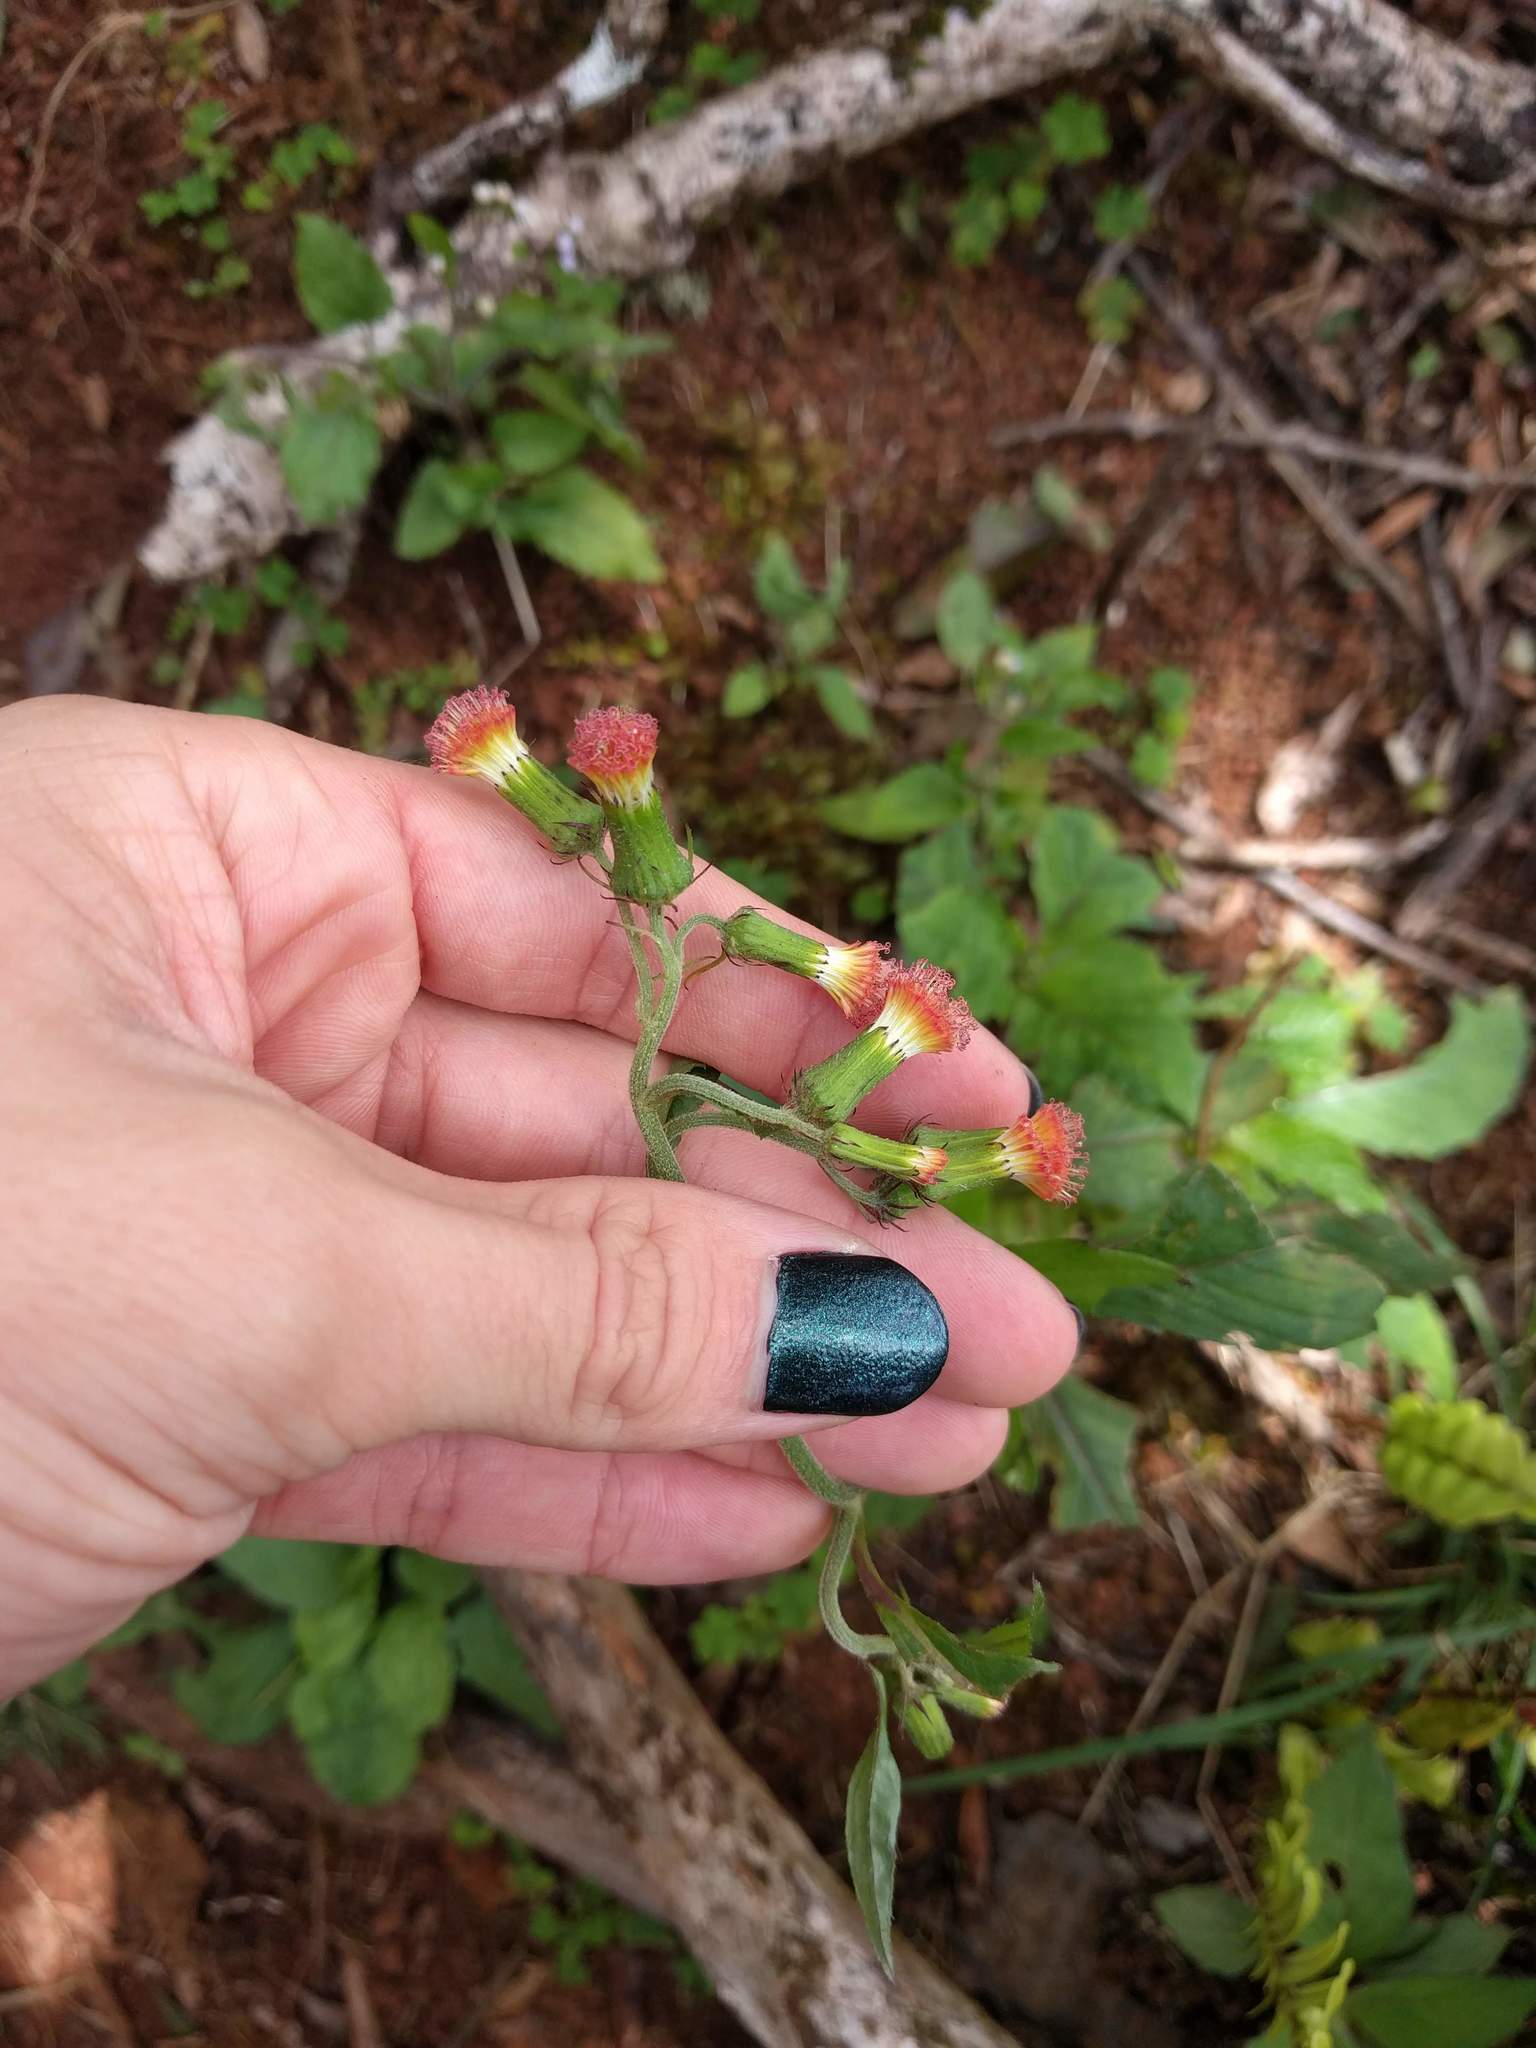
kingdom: Plantae
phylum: Tracheophyta
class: Magnoliopsida
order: Asterales
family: Asteraceae
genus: Crassocephalum
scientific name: Crassocephalum crepidioides
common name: Redflower ragleaf
